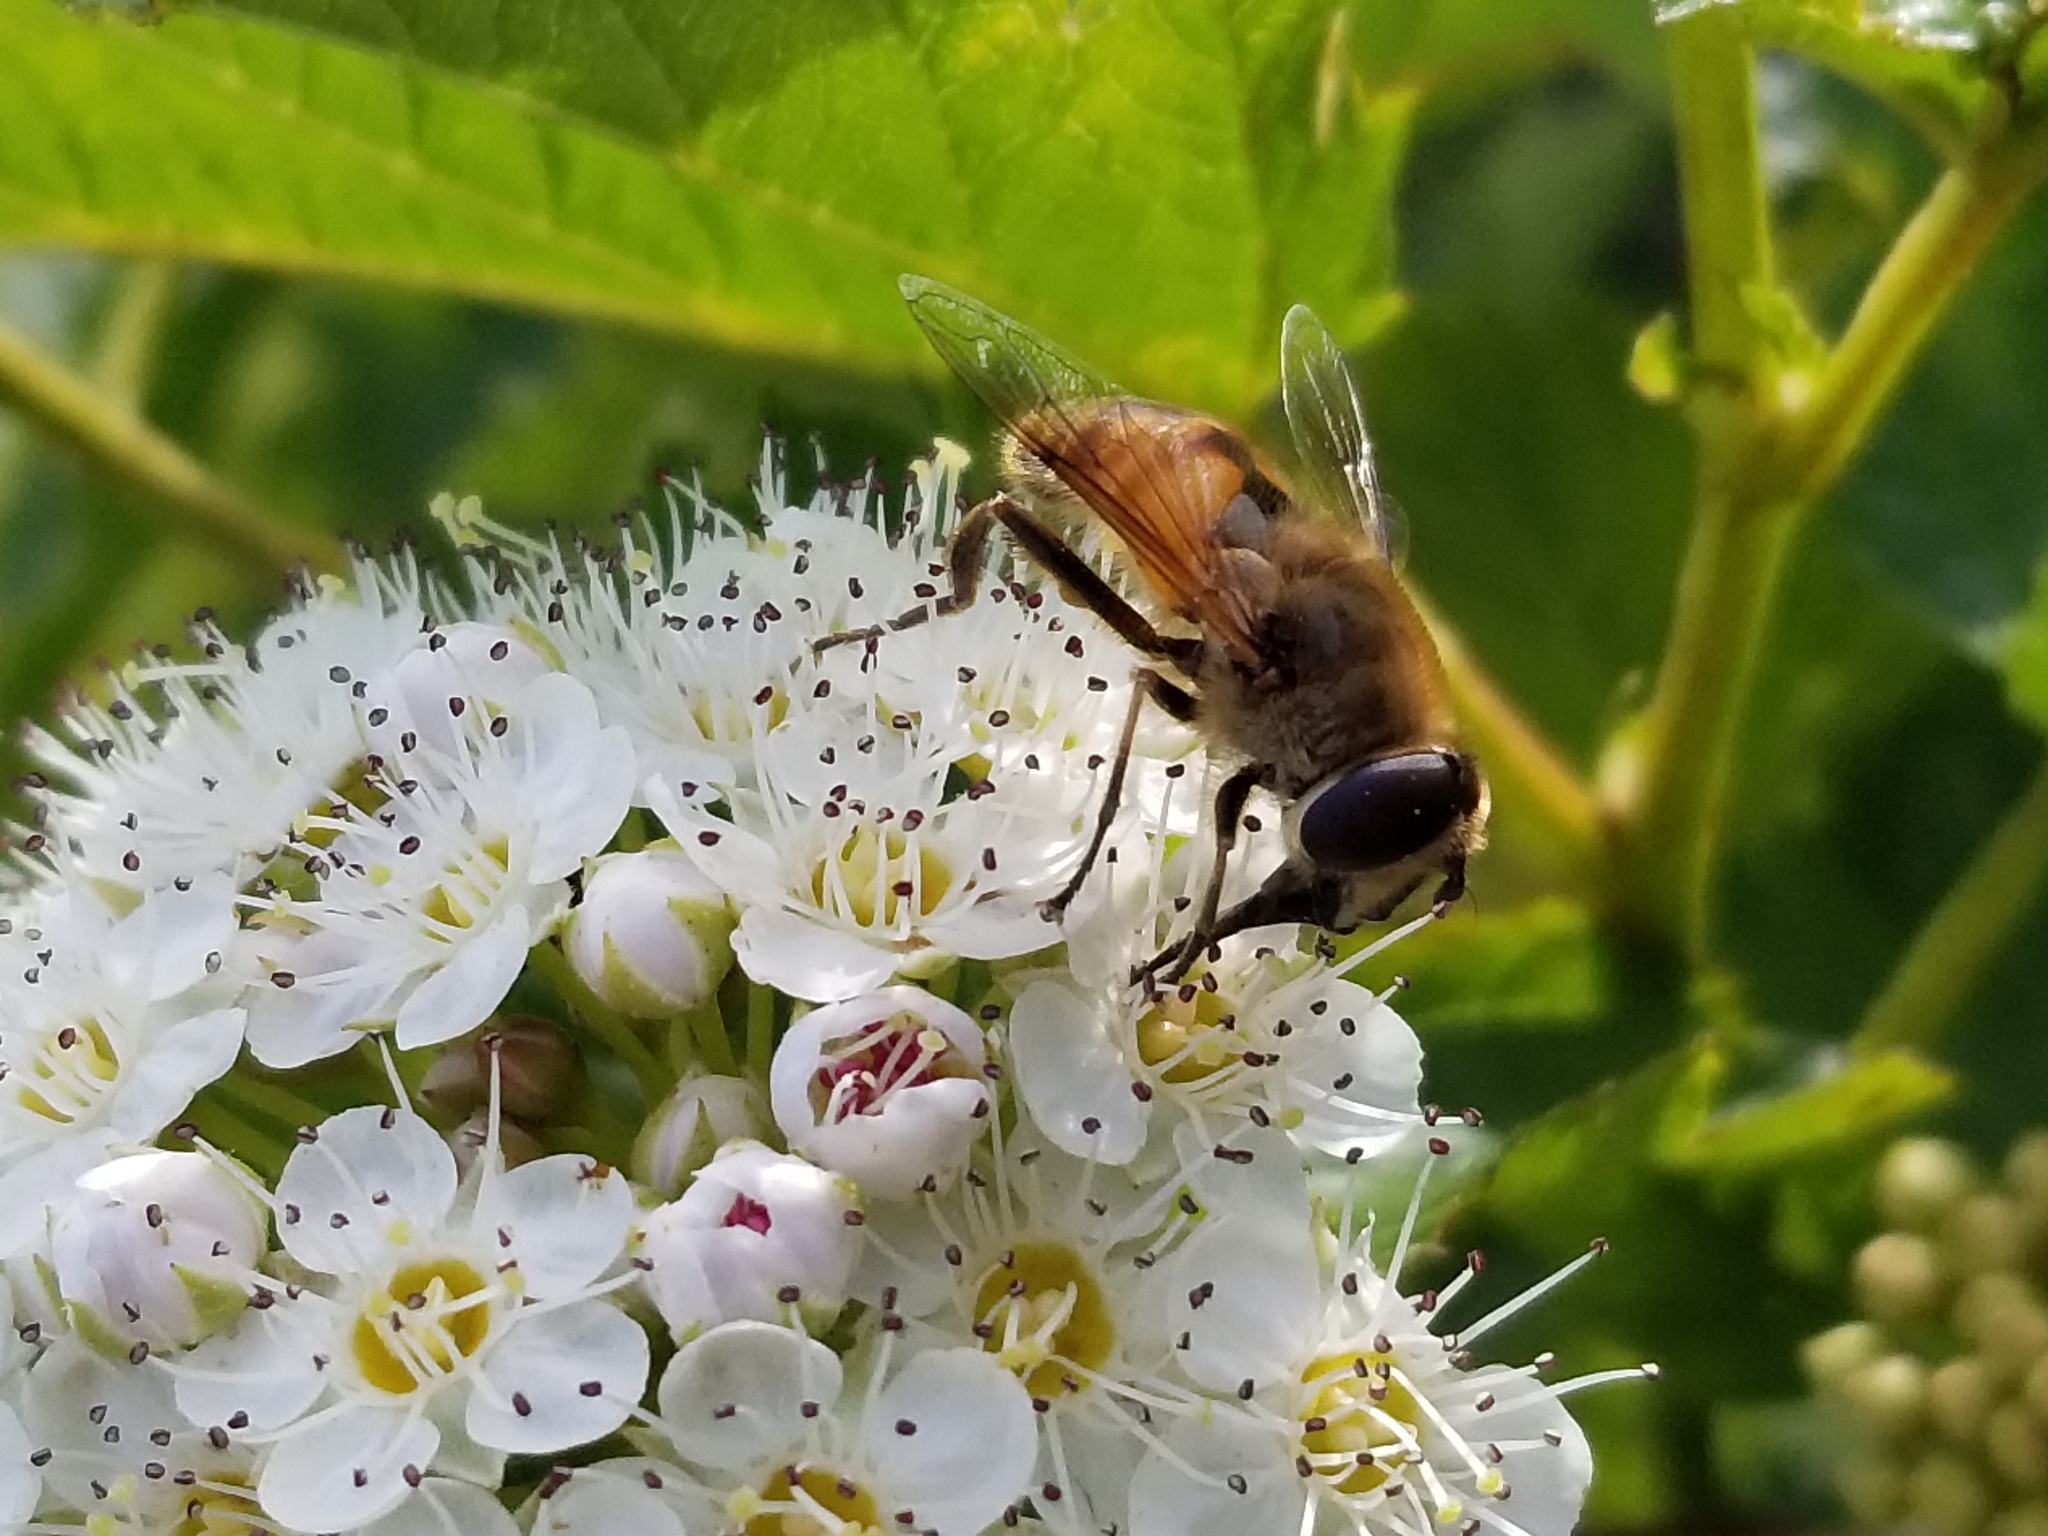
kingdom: Animalia
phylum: Arthropoda
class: Insecta
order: Diptera
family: Syrphidae
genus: Eristalis
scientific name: Eristalis tenax
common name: Drone fly
